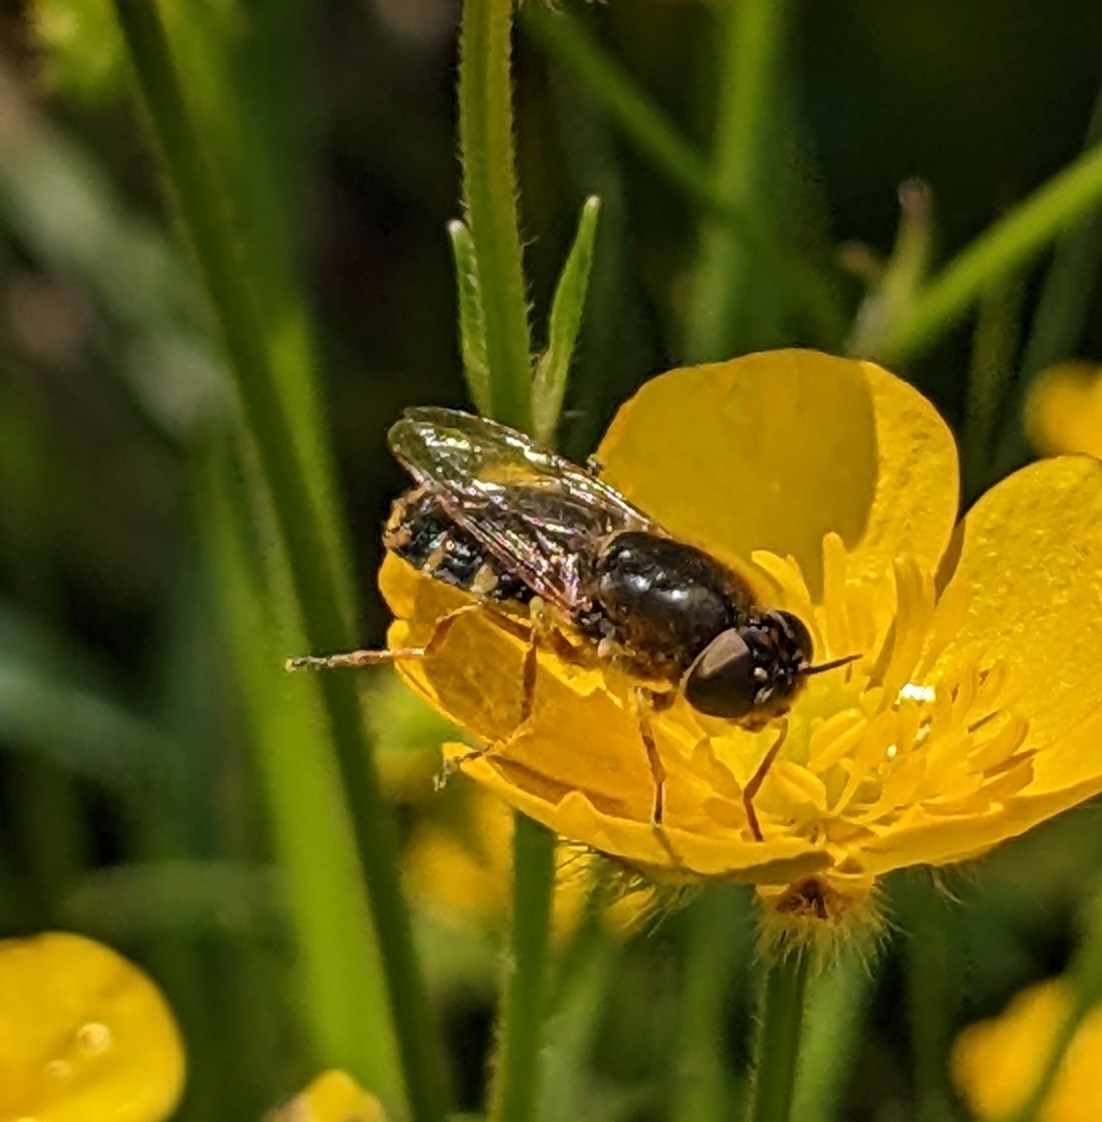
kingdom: Animalia
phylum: Arthropoda
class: Insecta
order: Diptera
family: Stratiomyidae
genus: Odontomyia
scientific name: Odontomyia ornata
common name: Ornate brigadier
